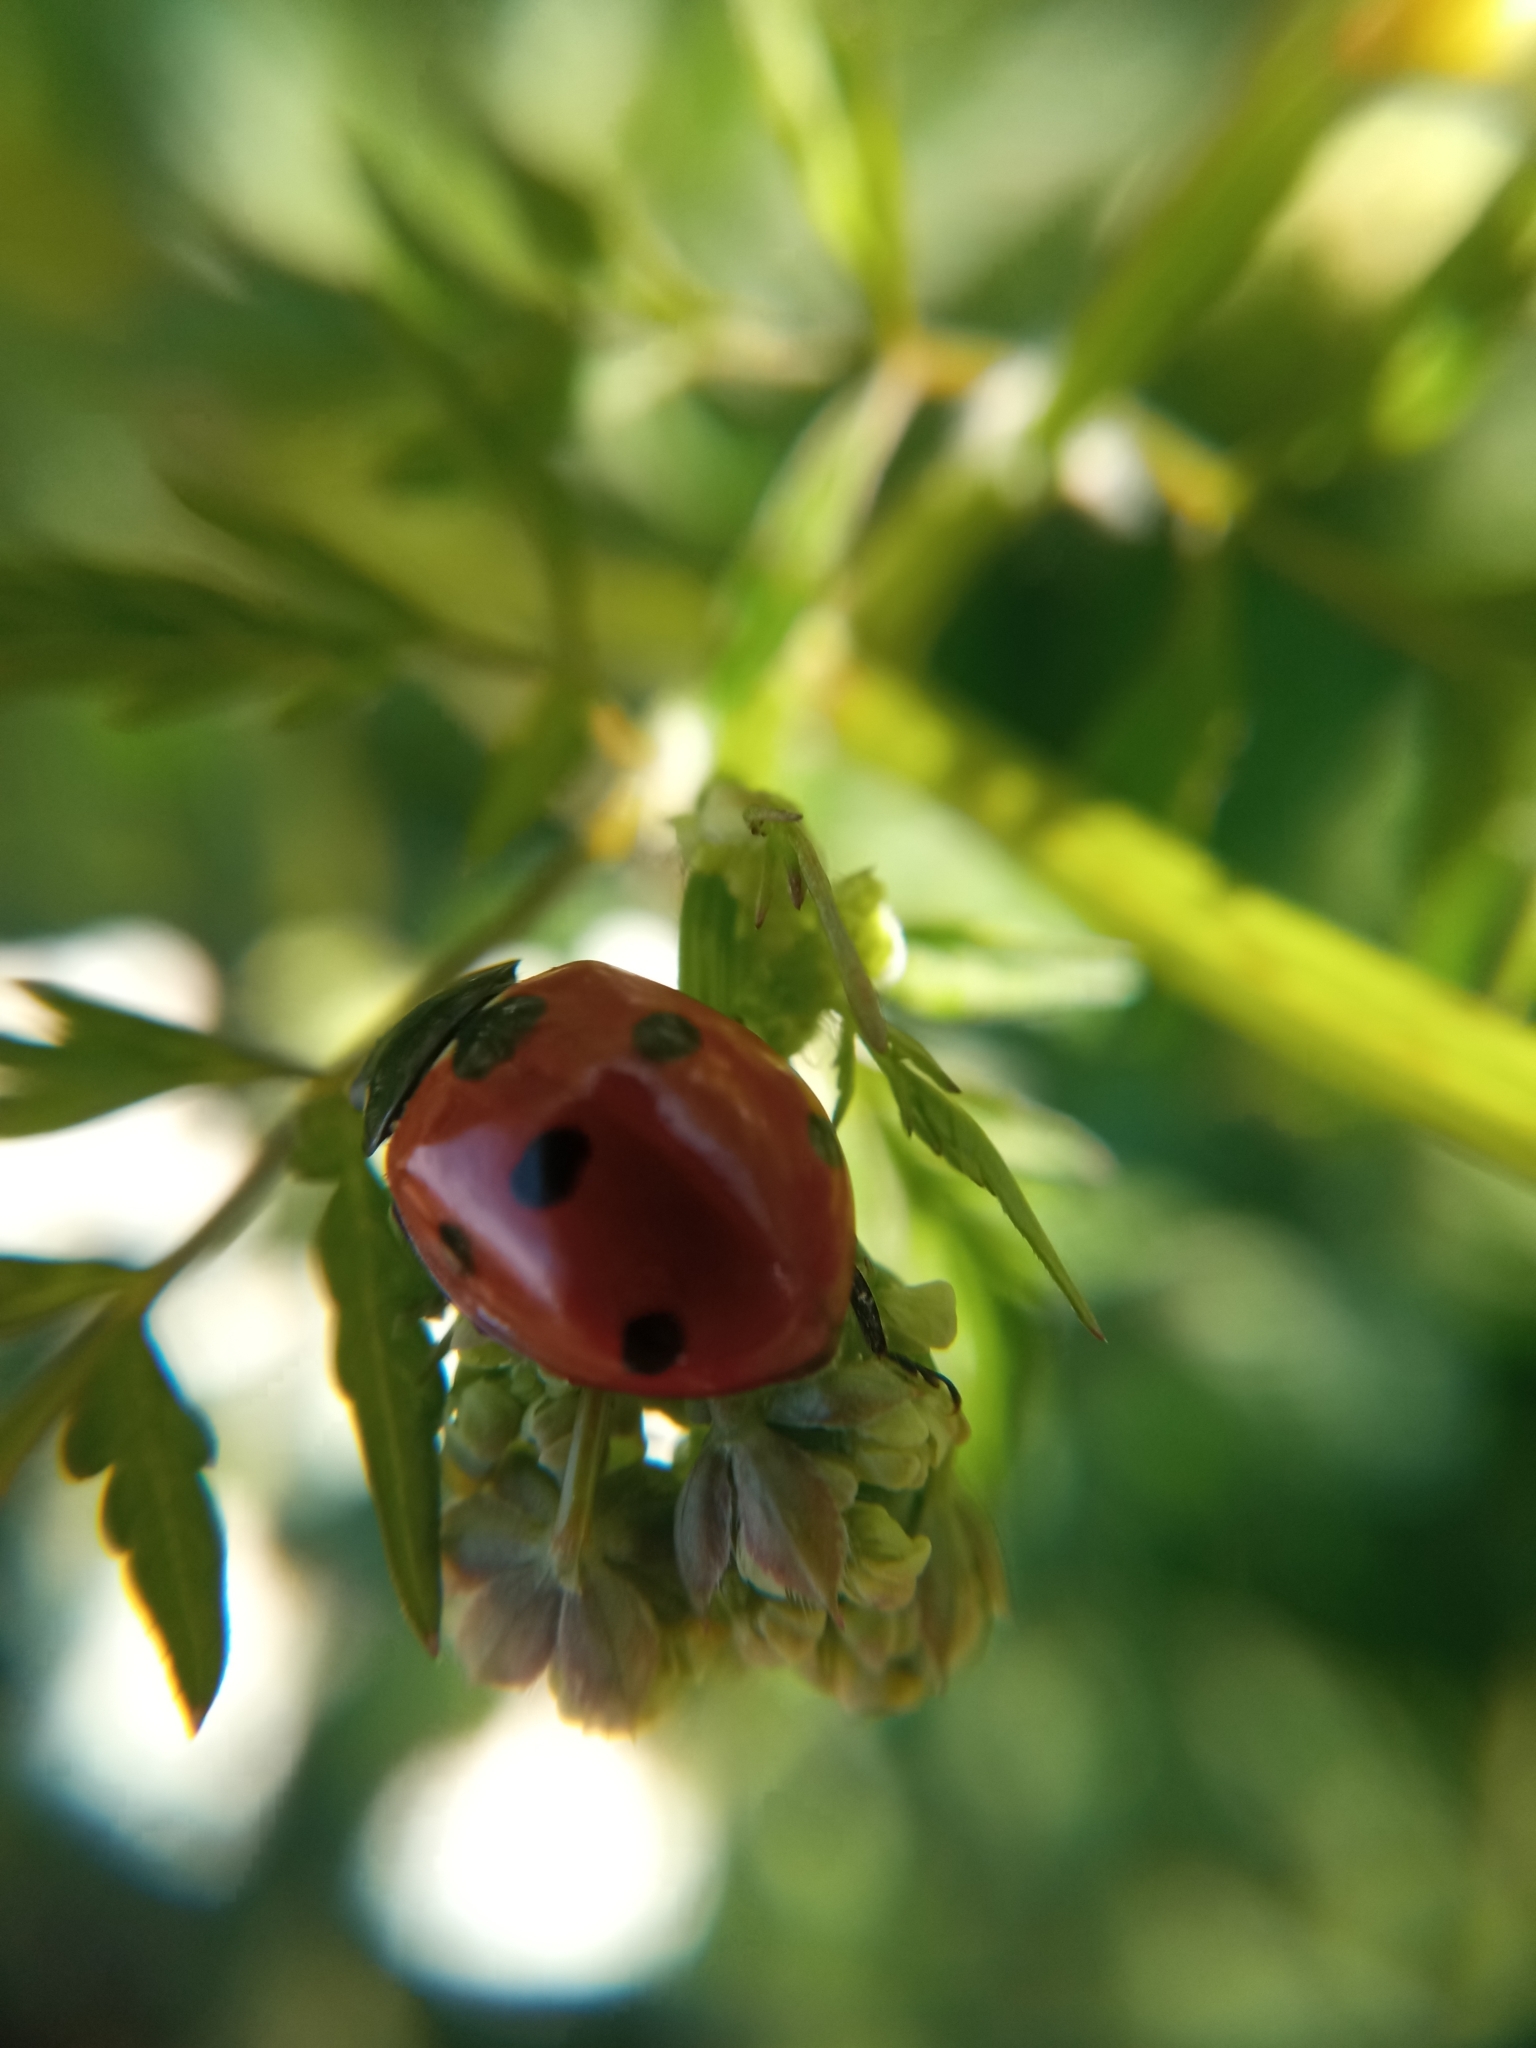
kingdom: Animalia
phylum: Arthropoda
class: Insecta
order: Coleoptera
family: Coccinellidae
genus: Coccinella
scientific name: Coccinella septempunctata
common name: Sevenspotted lady beetle
